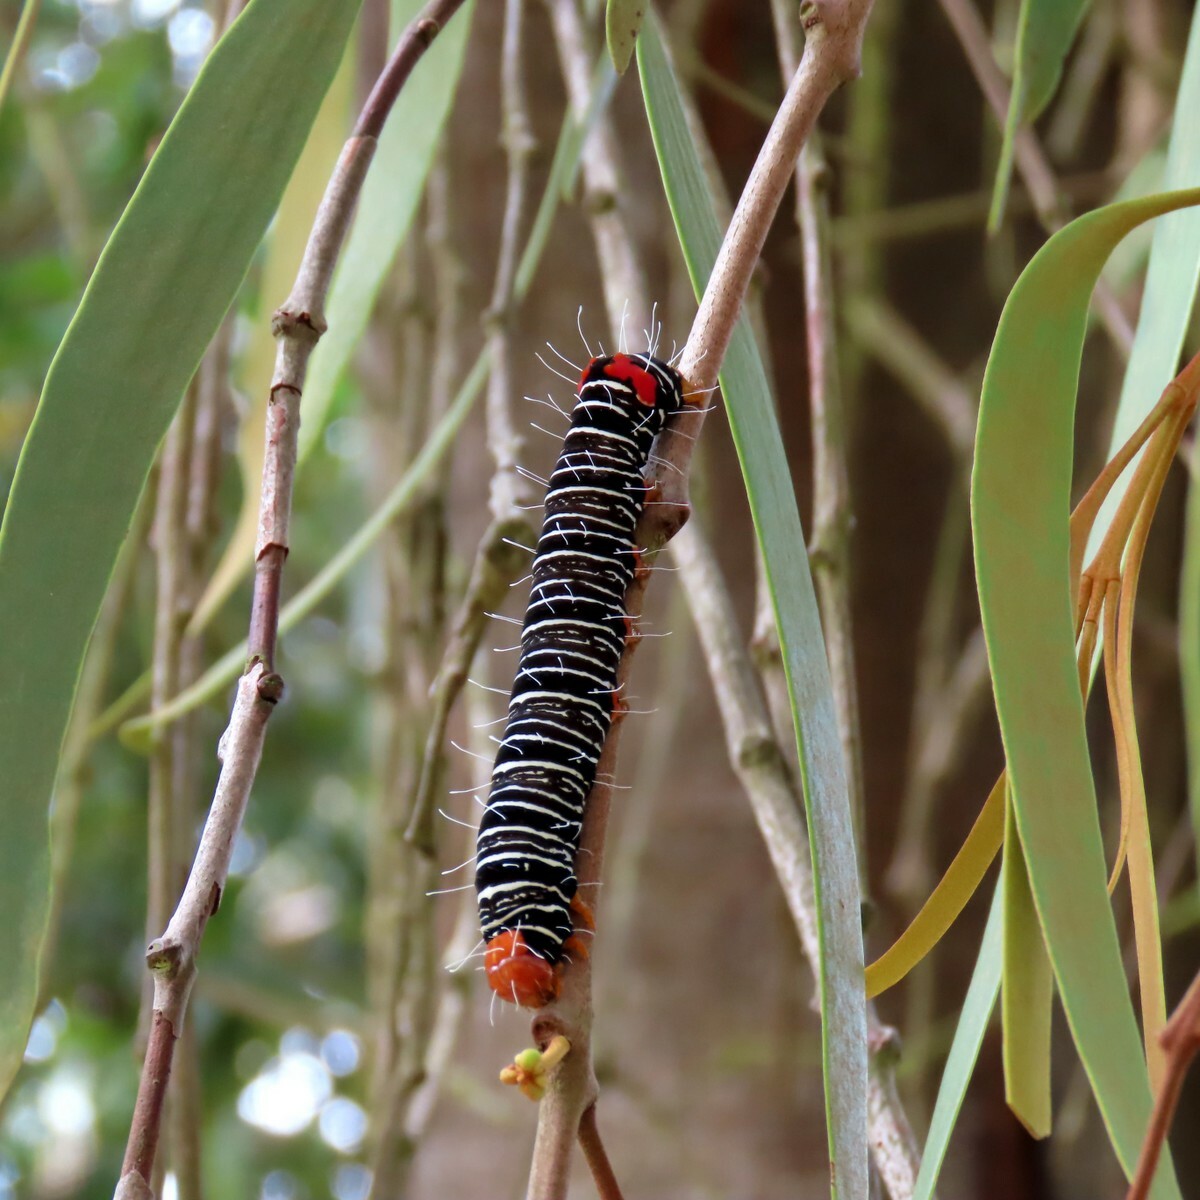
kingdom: Animalia
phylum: Arthropoda
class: Insecta
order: Lepidoptera
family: Noctuidae
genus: Comocrus
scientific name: Comocrus behri
